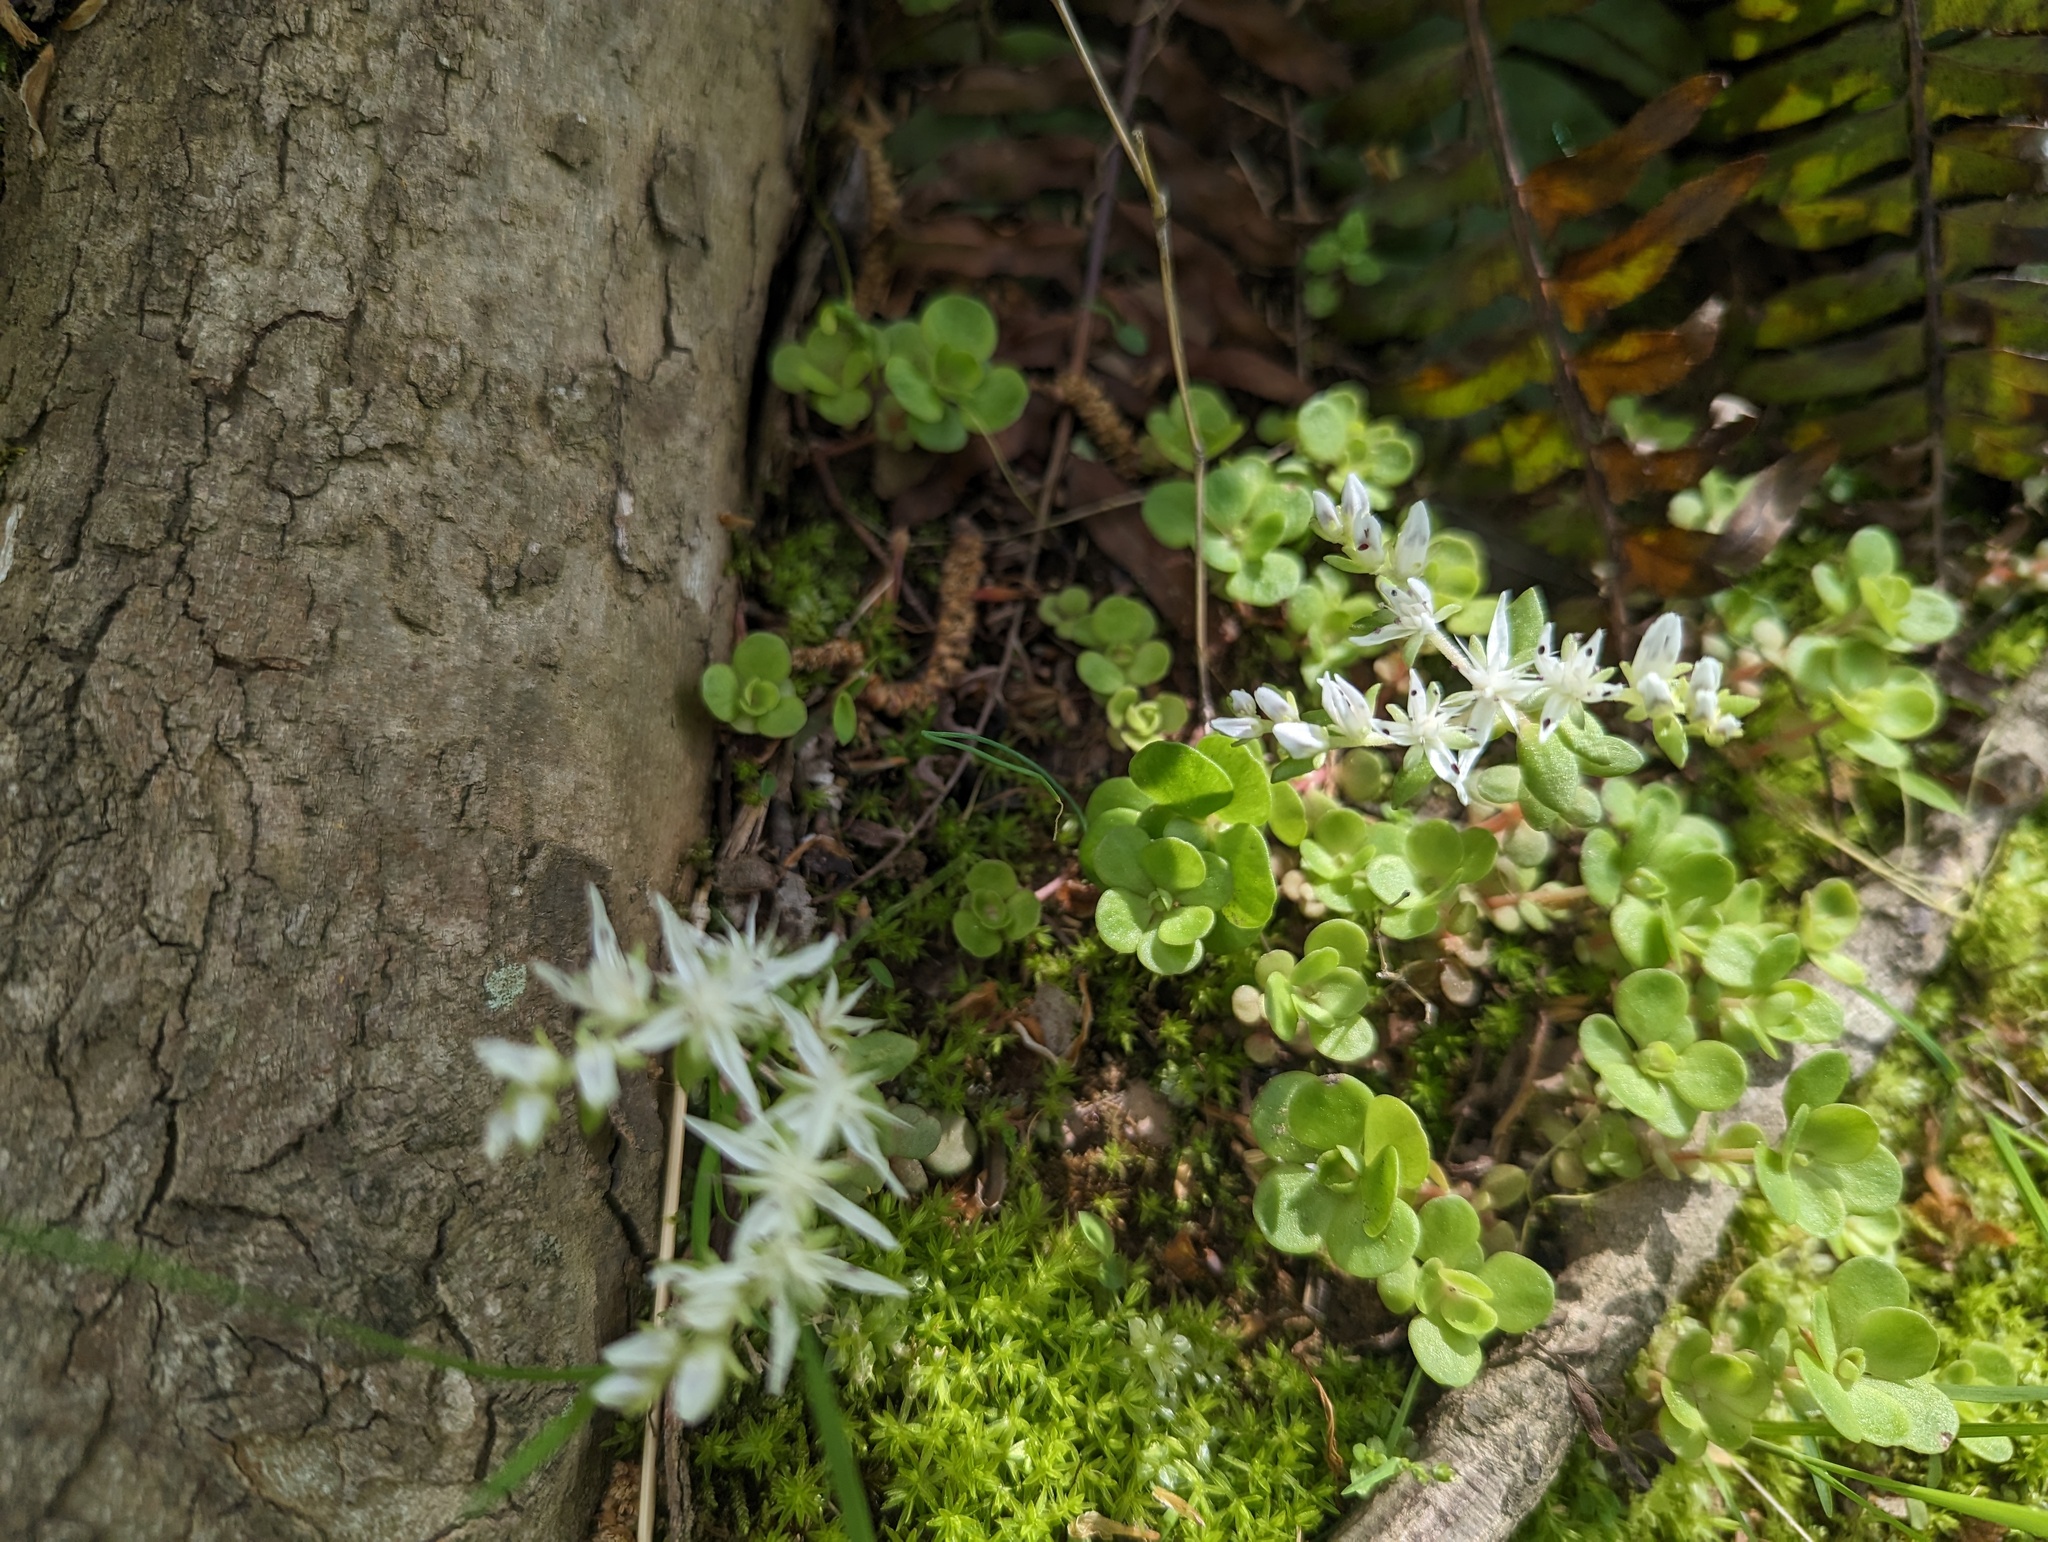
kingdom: Plantae
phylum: Tracheophyta
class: Magnoliopsida
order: Saxifragales
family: Crassulaceae
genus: Sedum
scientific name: Sedum ternatum
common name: Wild stonecrop
